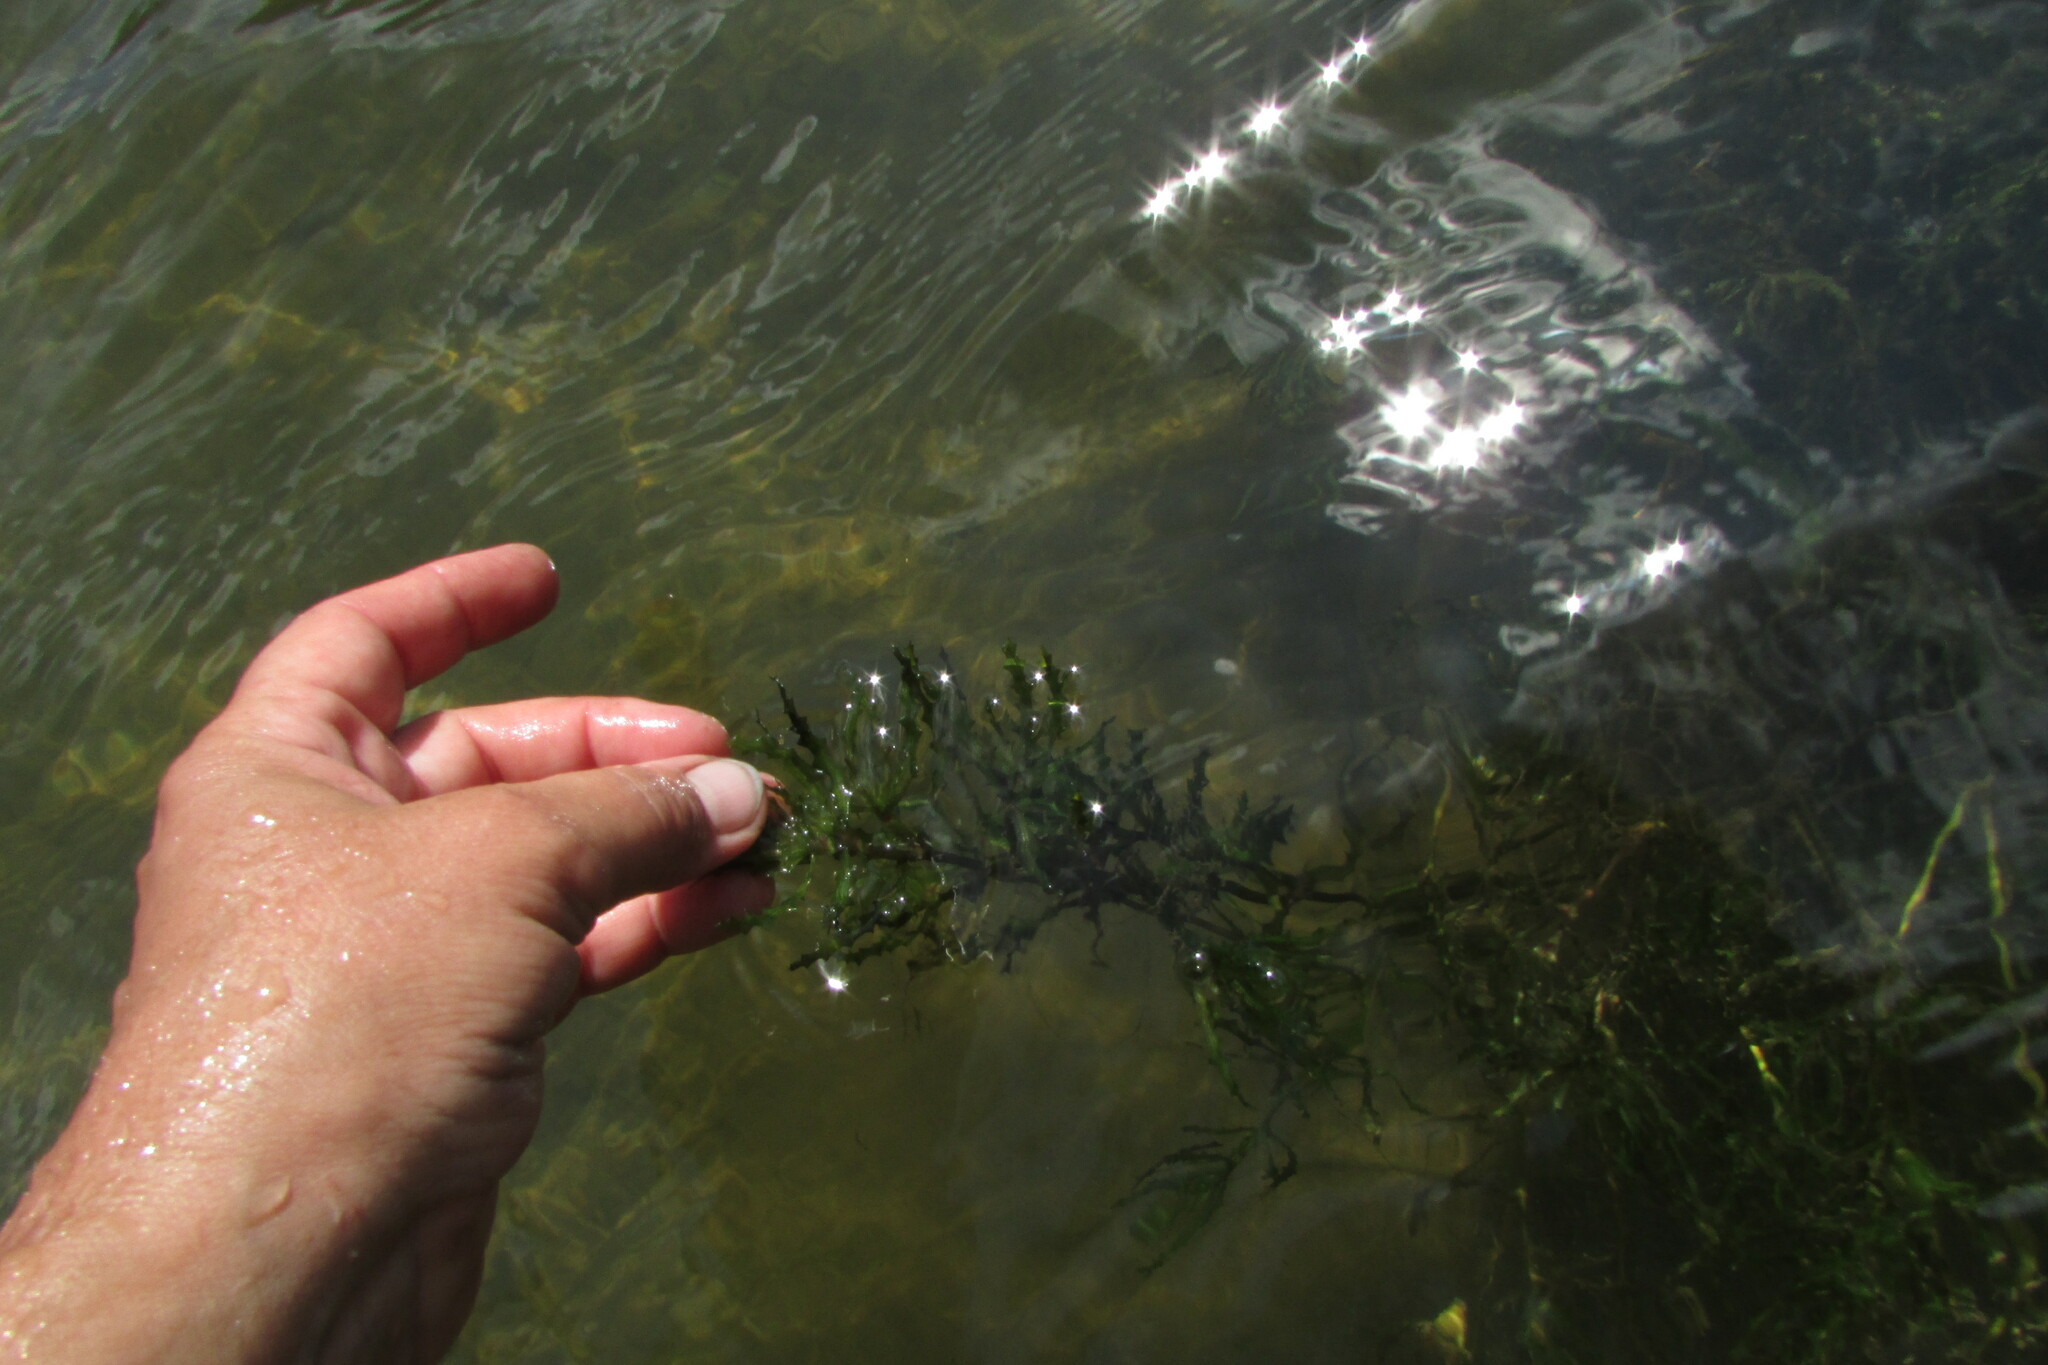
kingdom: Plantae
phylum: Tracheophyta
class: Liliopsida
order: Alismatales
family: Hydrocharitaceae
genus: Najas
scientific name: Najas major
